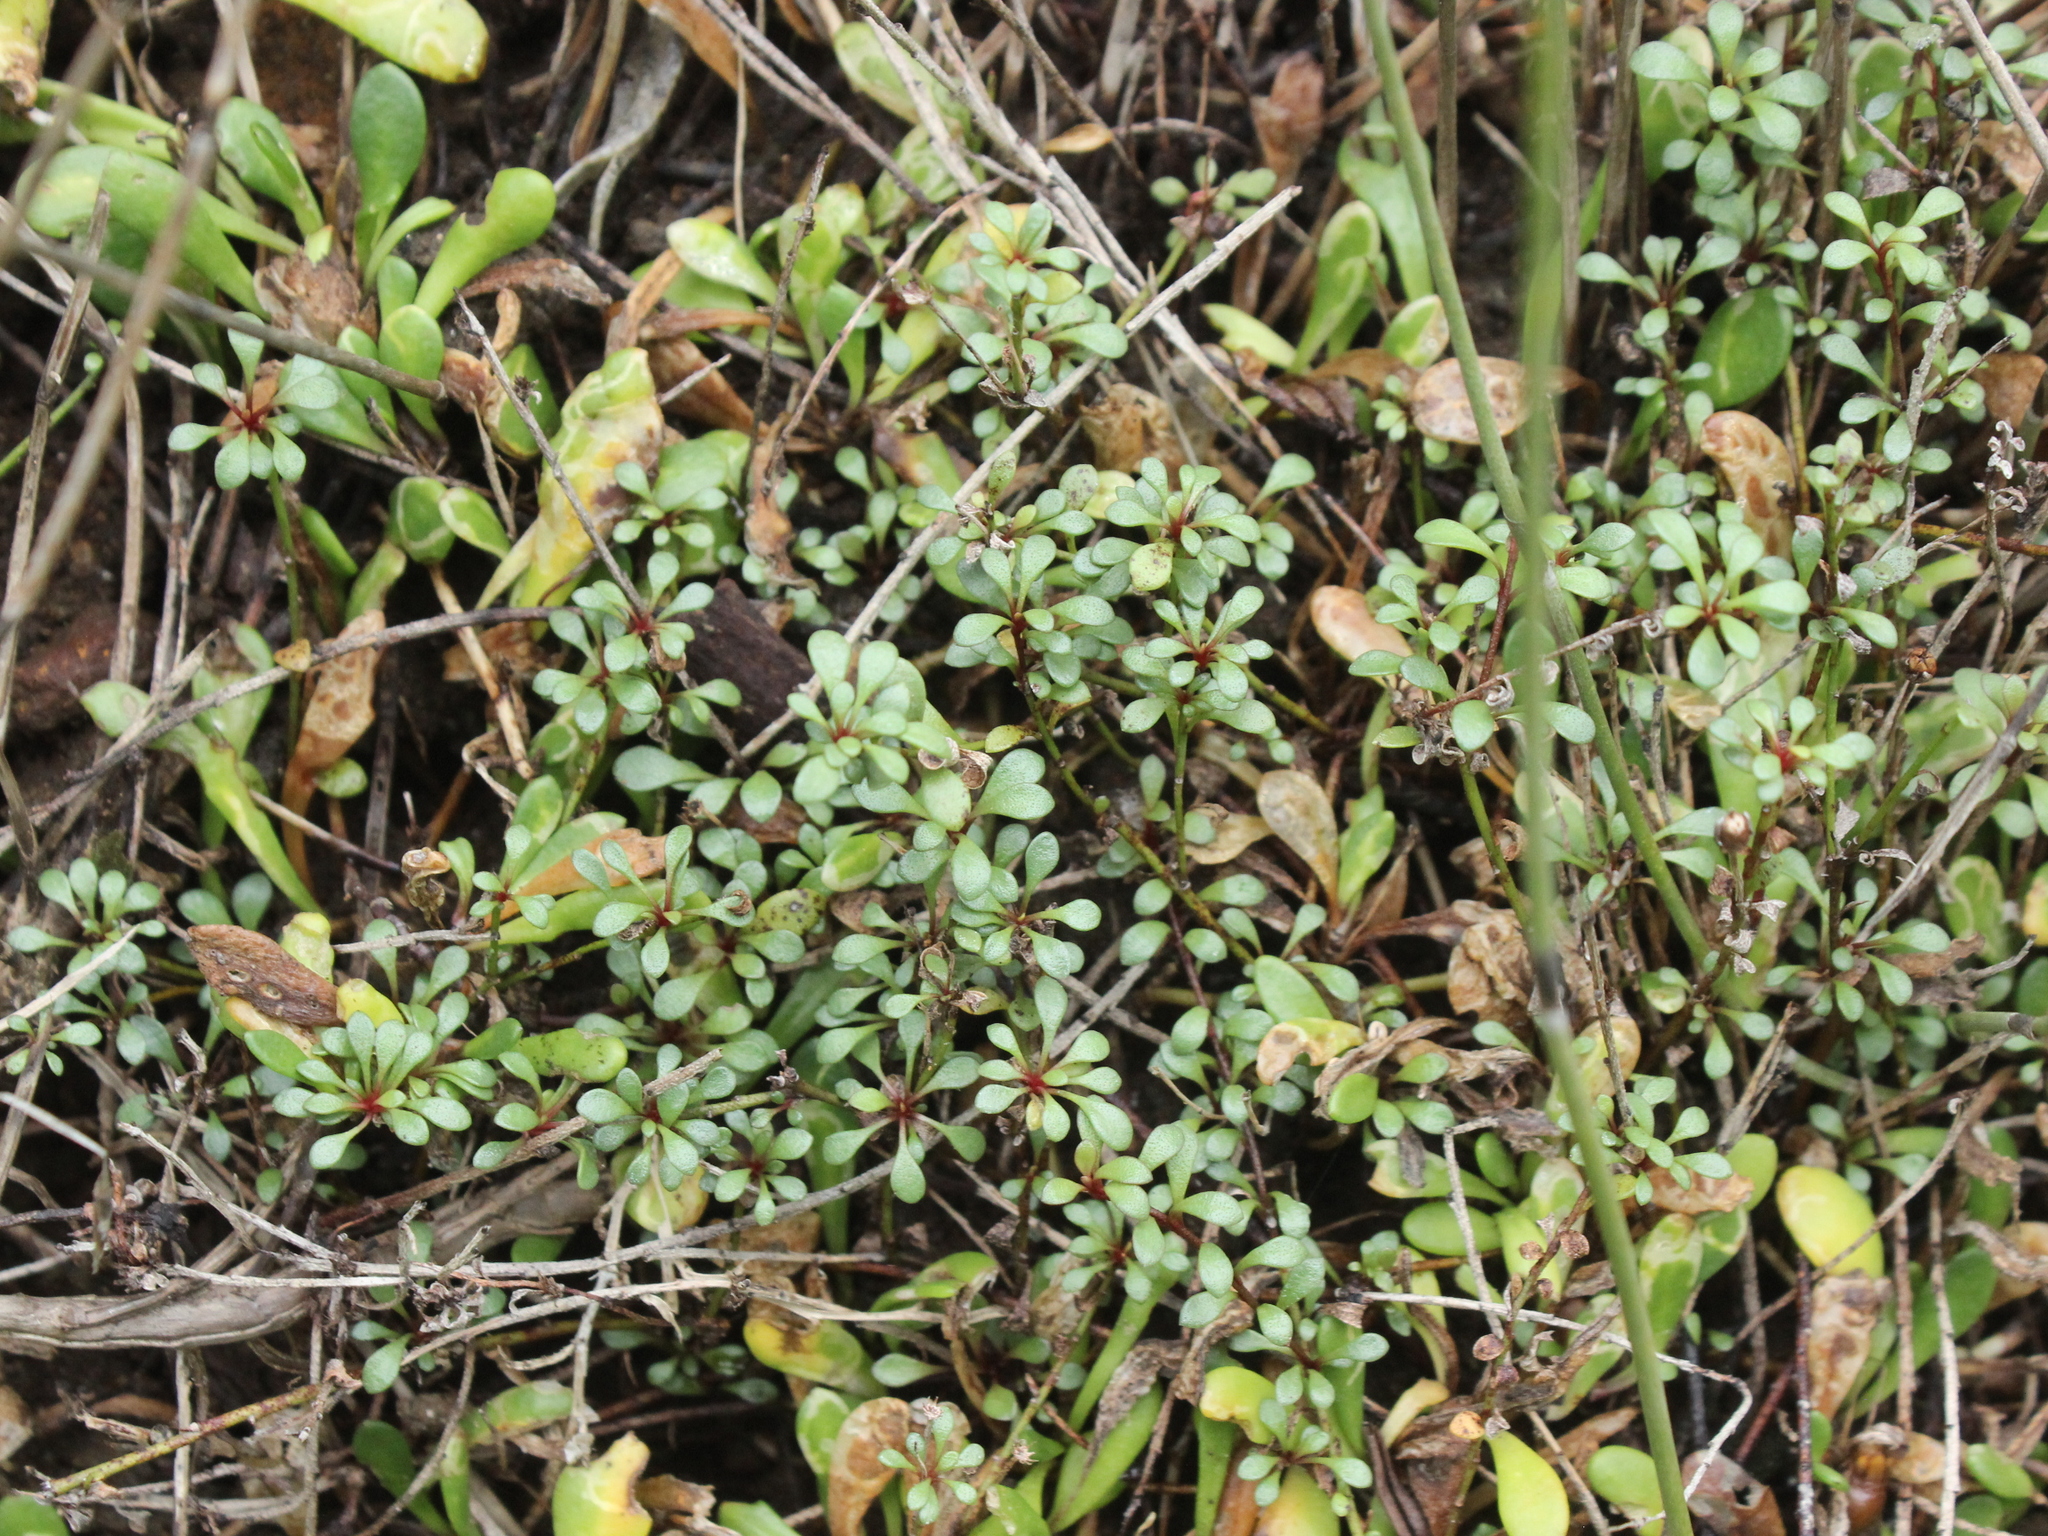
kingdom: Plantae
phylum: Tracheophyta
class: Magnoliopsida
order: Ericales
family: Primulaceae
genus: Samolus
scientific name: Samolus repens
